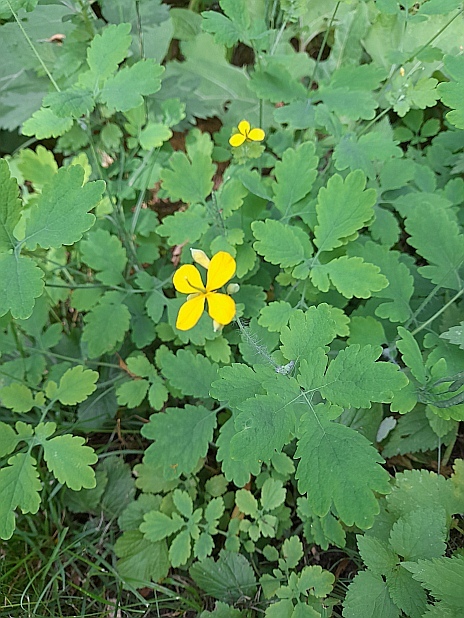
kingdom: Plantae
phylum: Tracheophyta
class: Magnoliopsida
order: Ranunculales
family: Papaveraceae
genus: Chelidonium
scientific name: Chelidonium majus
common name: Greater celandine
